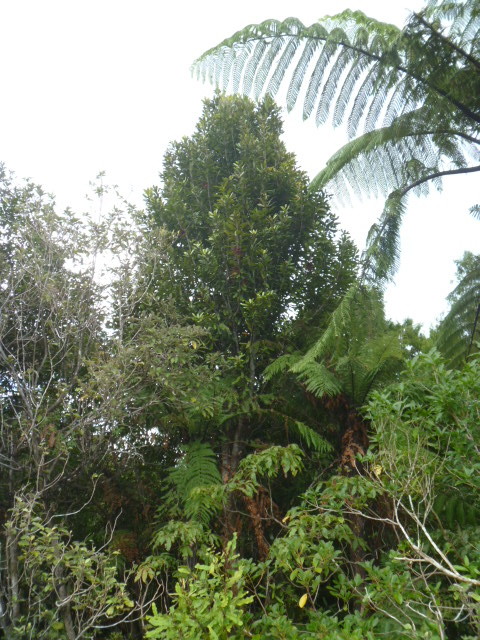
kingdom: Plantae
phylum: Tracheophyta
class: Magnoliopsida
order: Proteales
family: Proteaceae
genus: Knightia
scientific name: Knightia excelsa
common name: New zealand-honeysuckle
